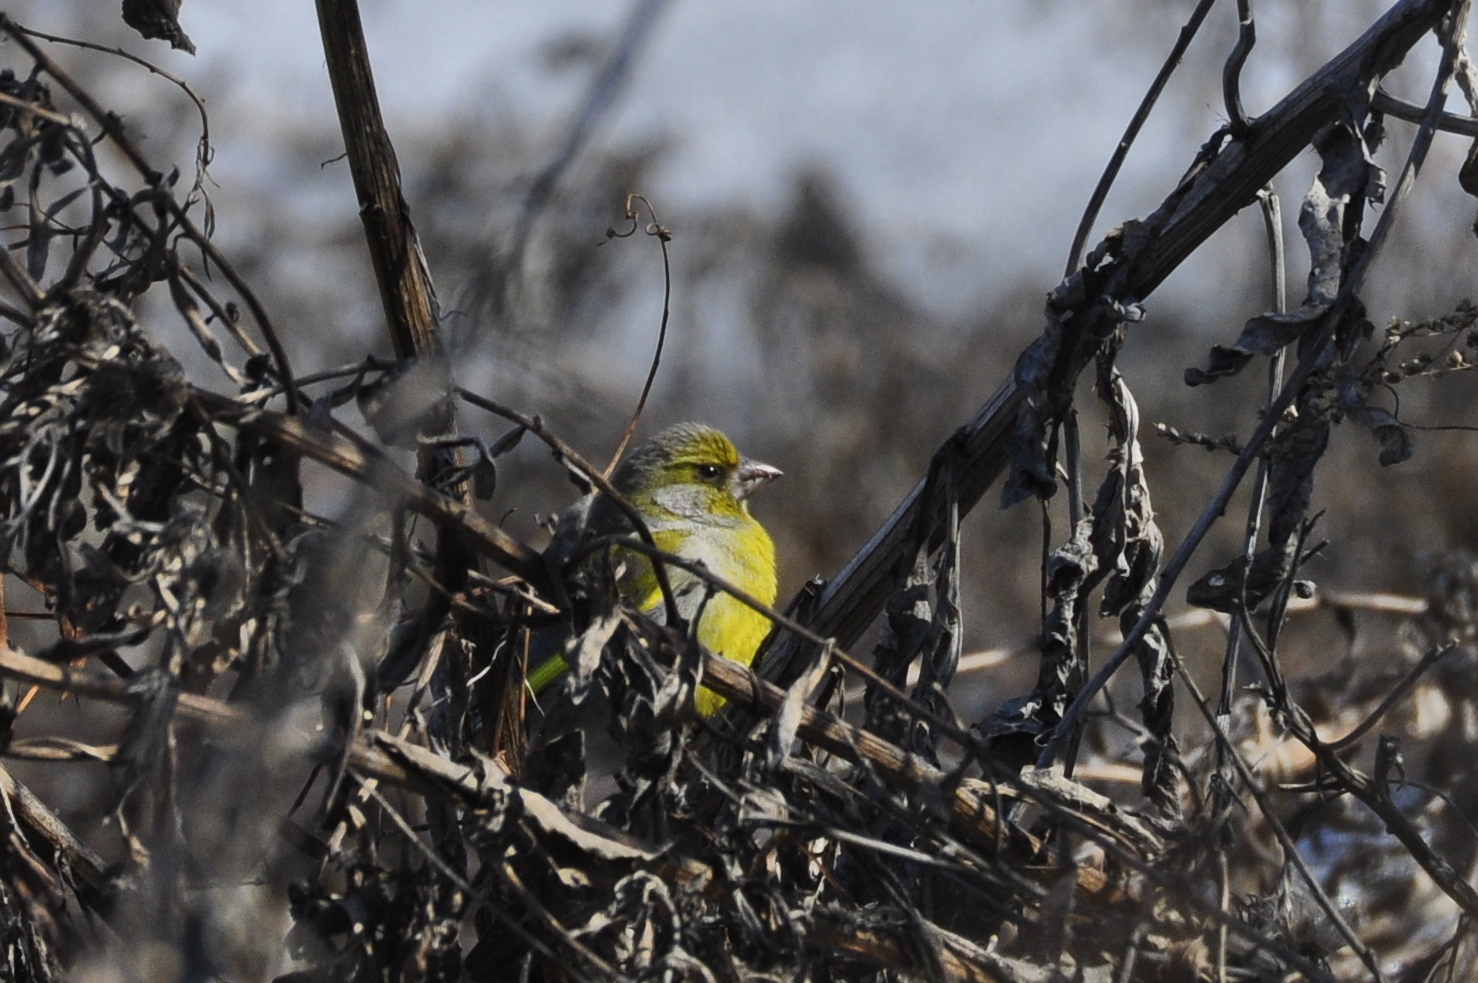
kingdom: Plantae
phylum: Tracheophyta
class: Liliopsida
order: Poales
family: Poaceae
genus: Chloris
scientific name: Chloris chloris
